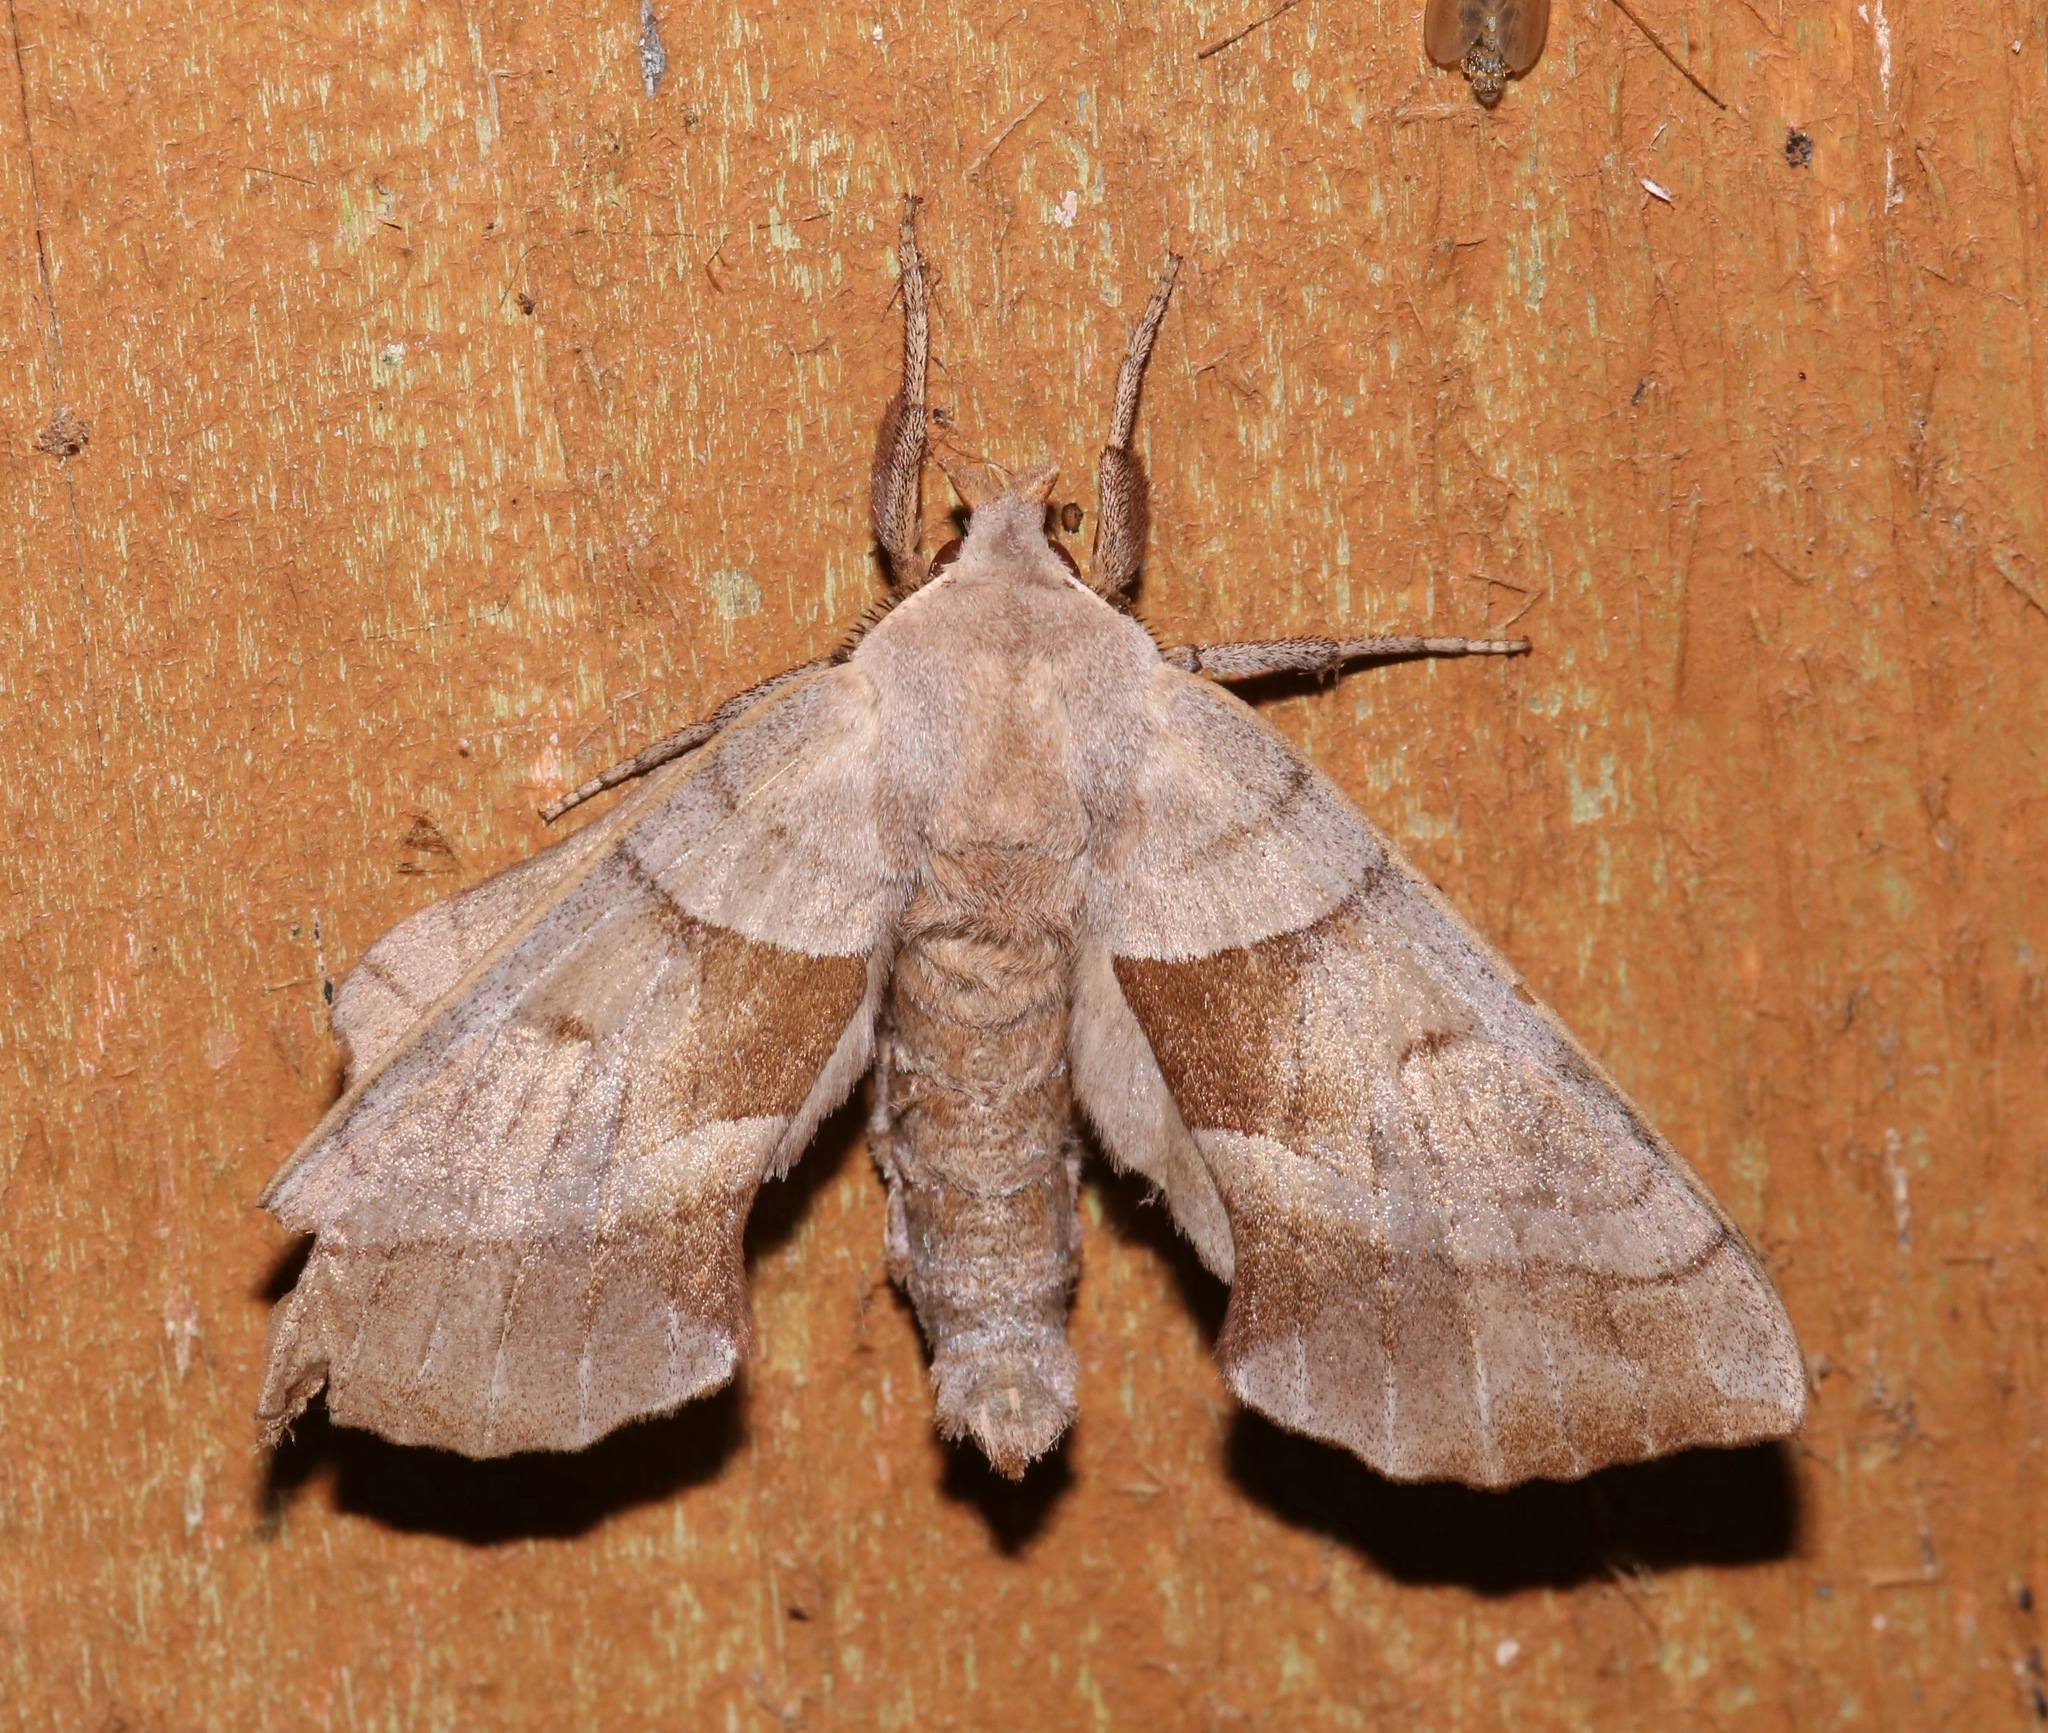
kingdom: Animalia
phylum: Arthropoda
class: Insecta
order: Lepidoptera
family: Sphingidae
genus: Amorpha
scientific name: Amorpha juglandis
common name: Walnut sphinx
